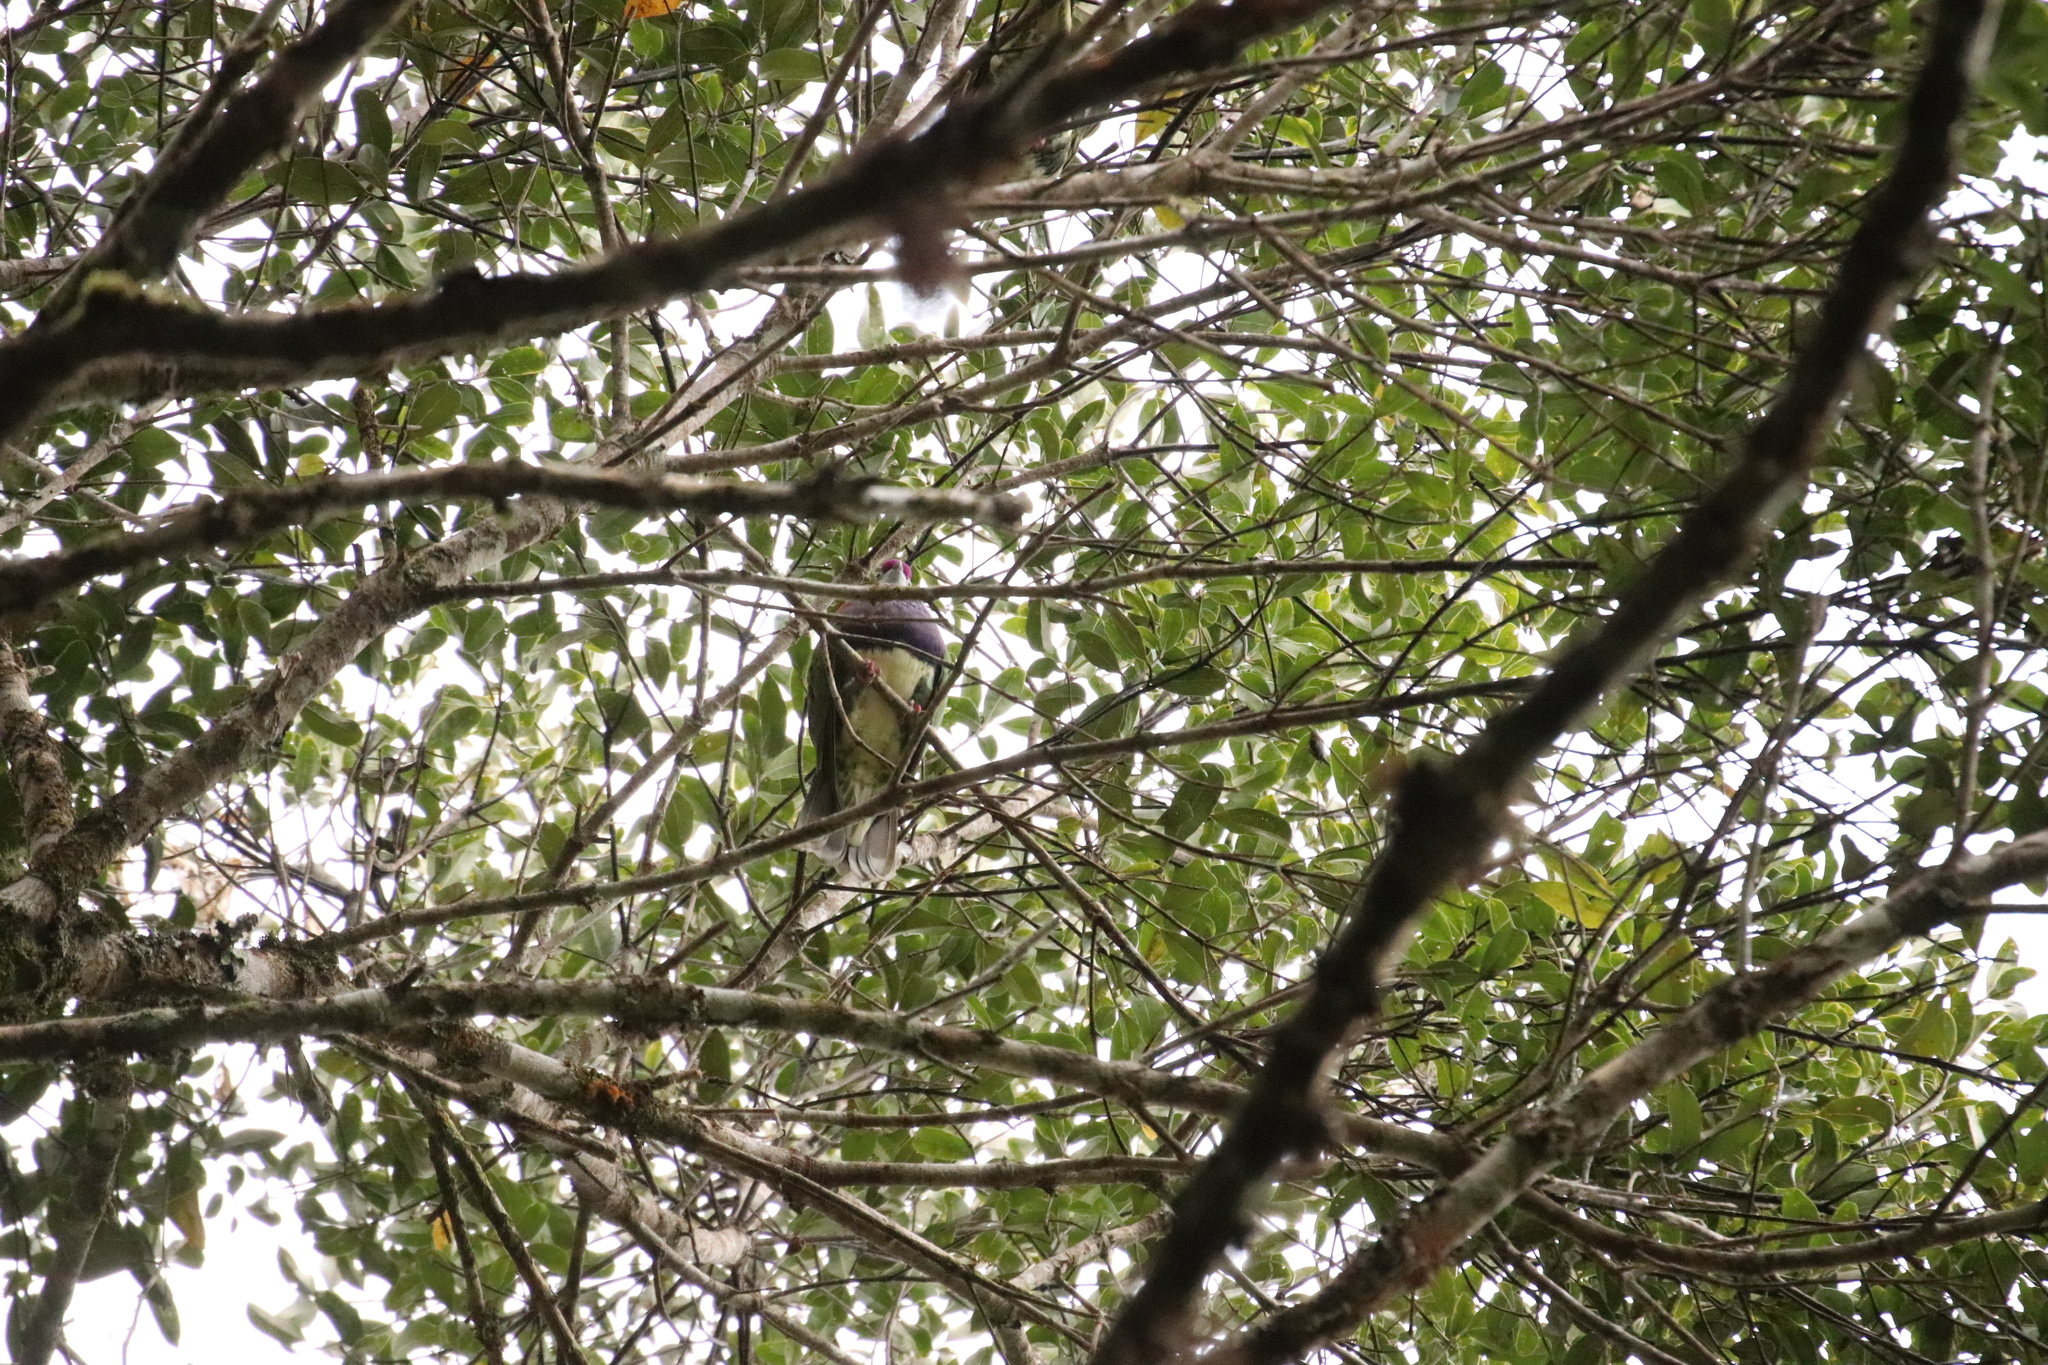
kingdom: Animalia
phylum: Chordata
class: Aves
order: Columbiformes
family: Columbidae
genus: Ptilinopus
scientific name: Ptilinopus superbus
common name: Superb fruit dove
